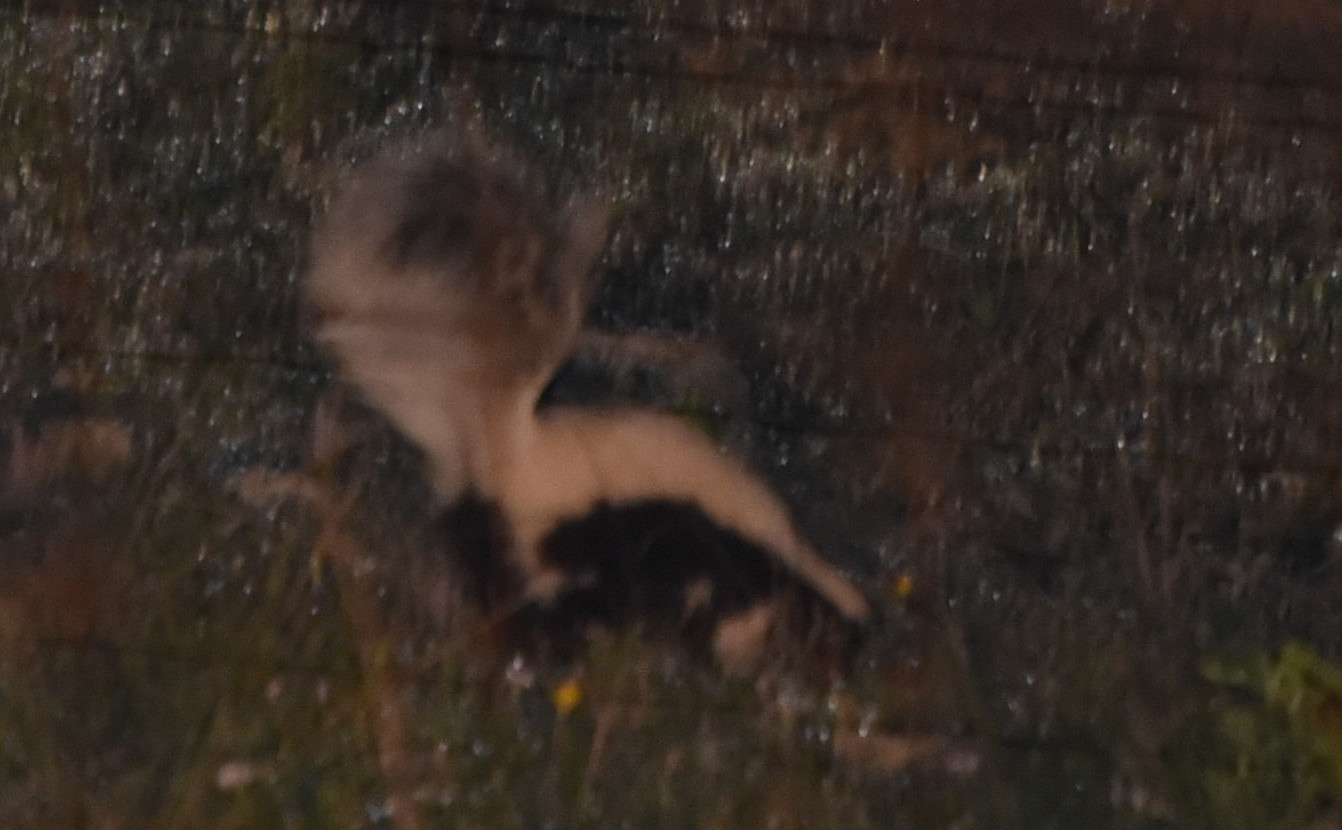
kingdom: Animalia
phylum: Chordata
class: Mammalia
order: Carnivora
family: Mephitidae
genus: Mephitis
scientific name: Mephitis mephitis
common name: Striped skunk
